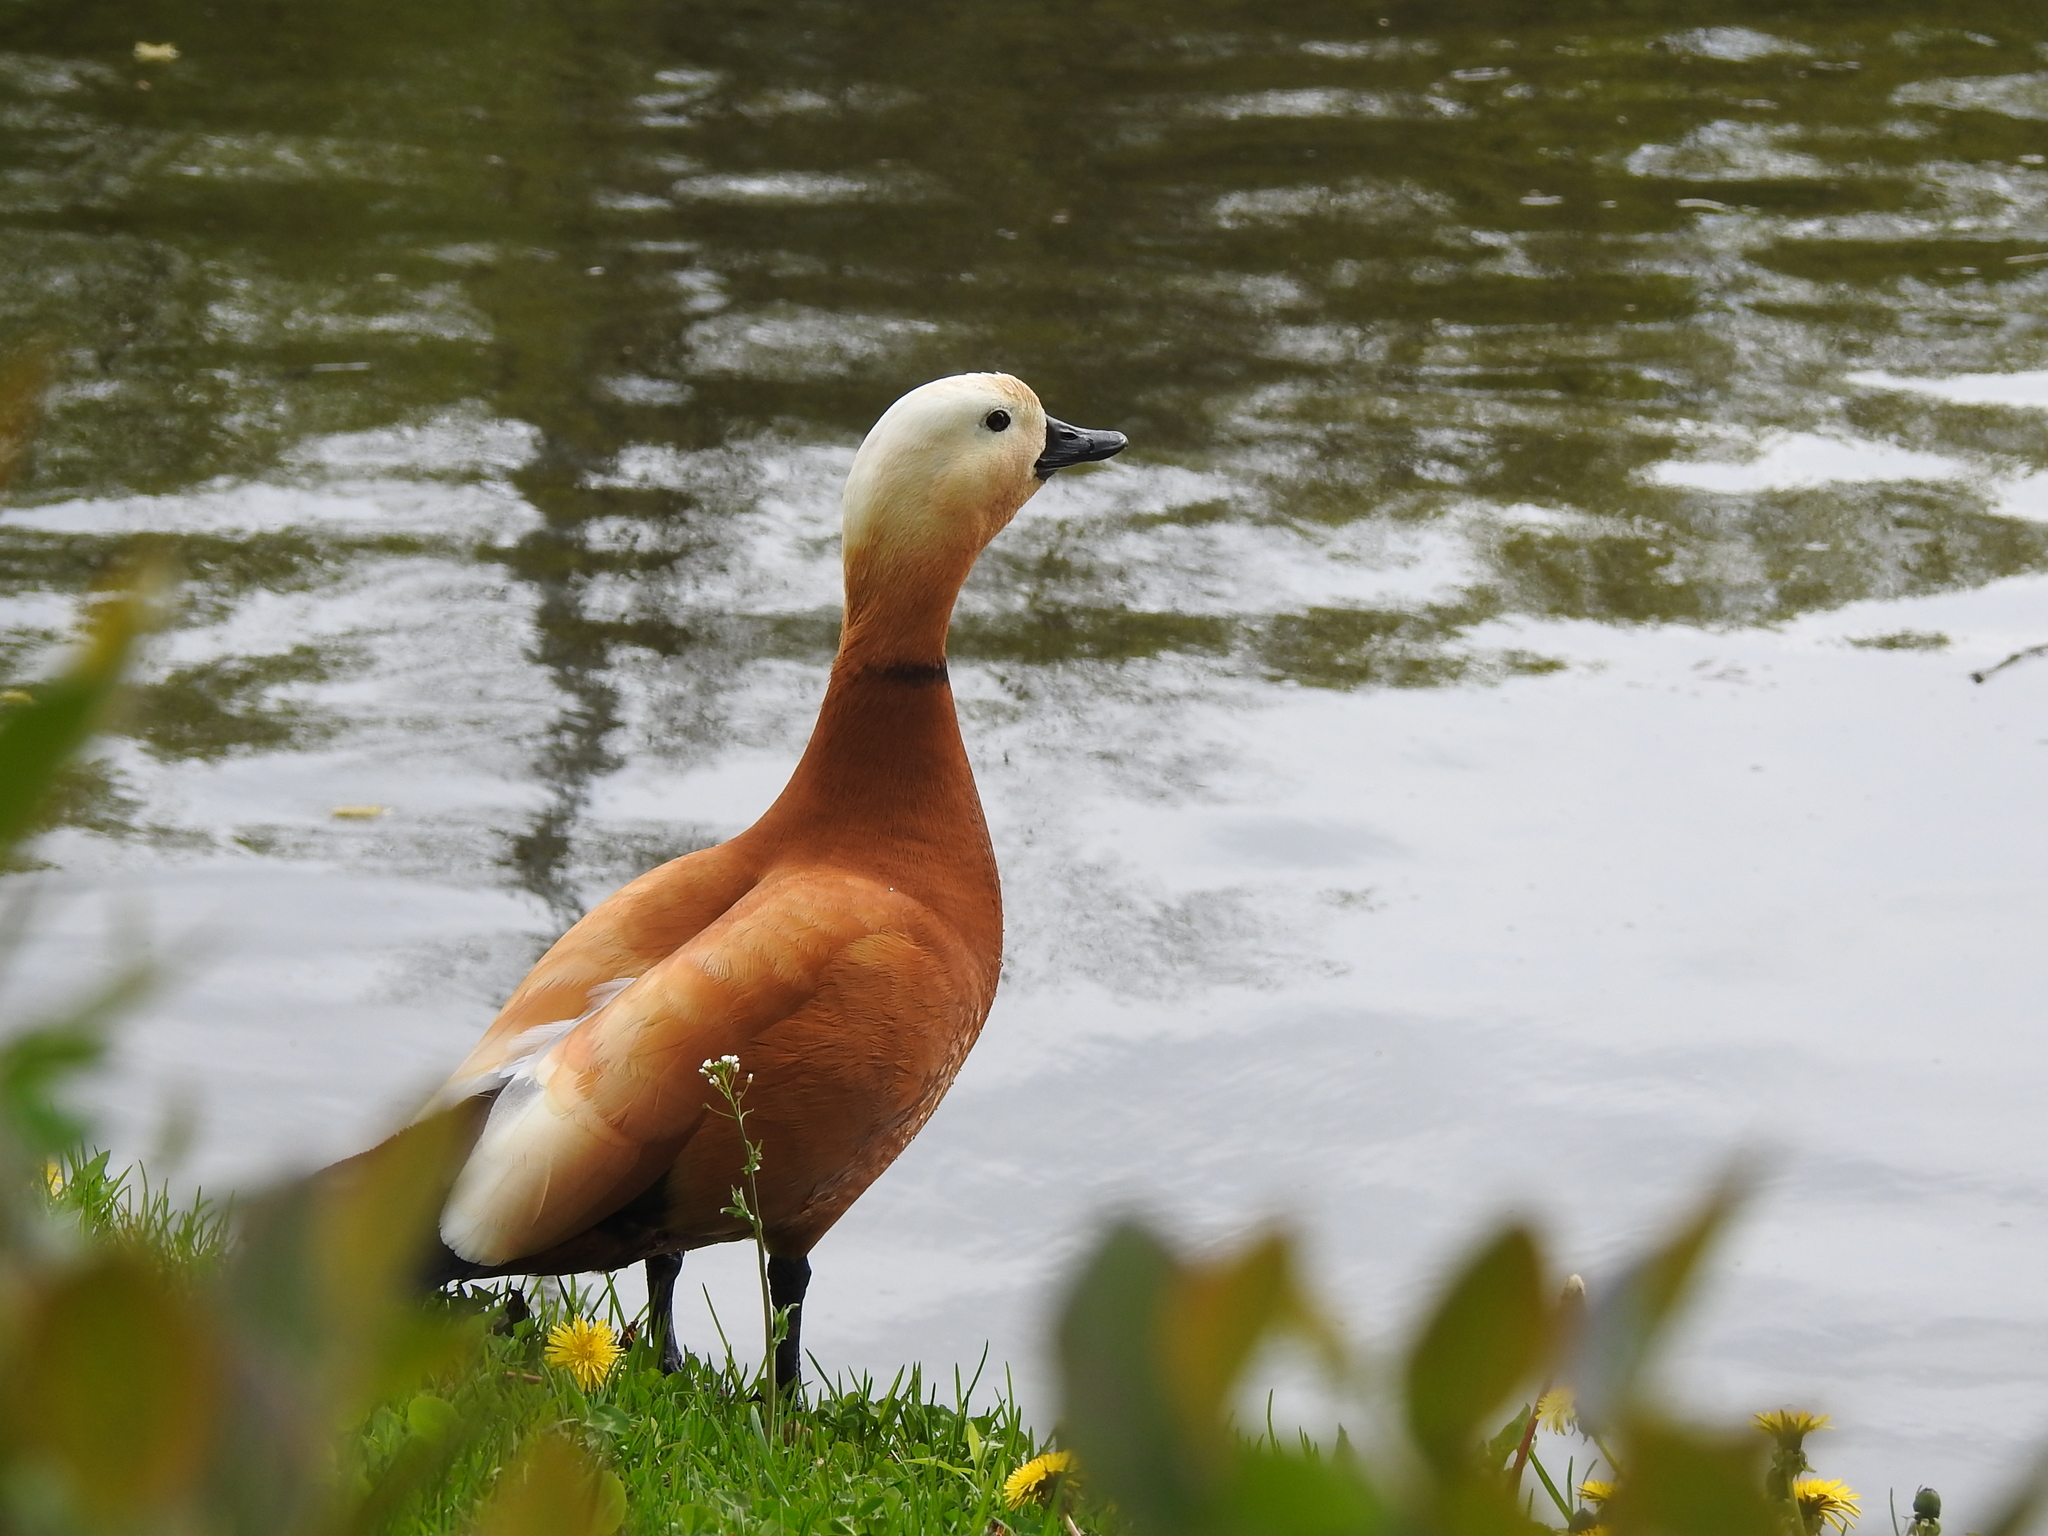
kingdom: Animalia
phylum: Chordata
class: Aves
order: Anseriformes
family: Anatidae
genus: Tadorna
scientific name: Tadorna ferruginea
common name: Ruddy shelduck
